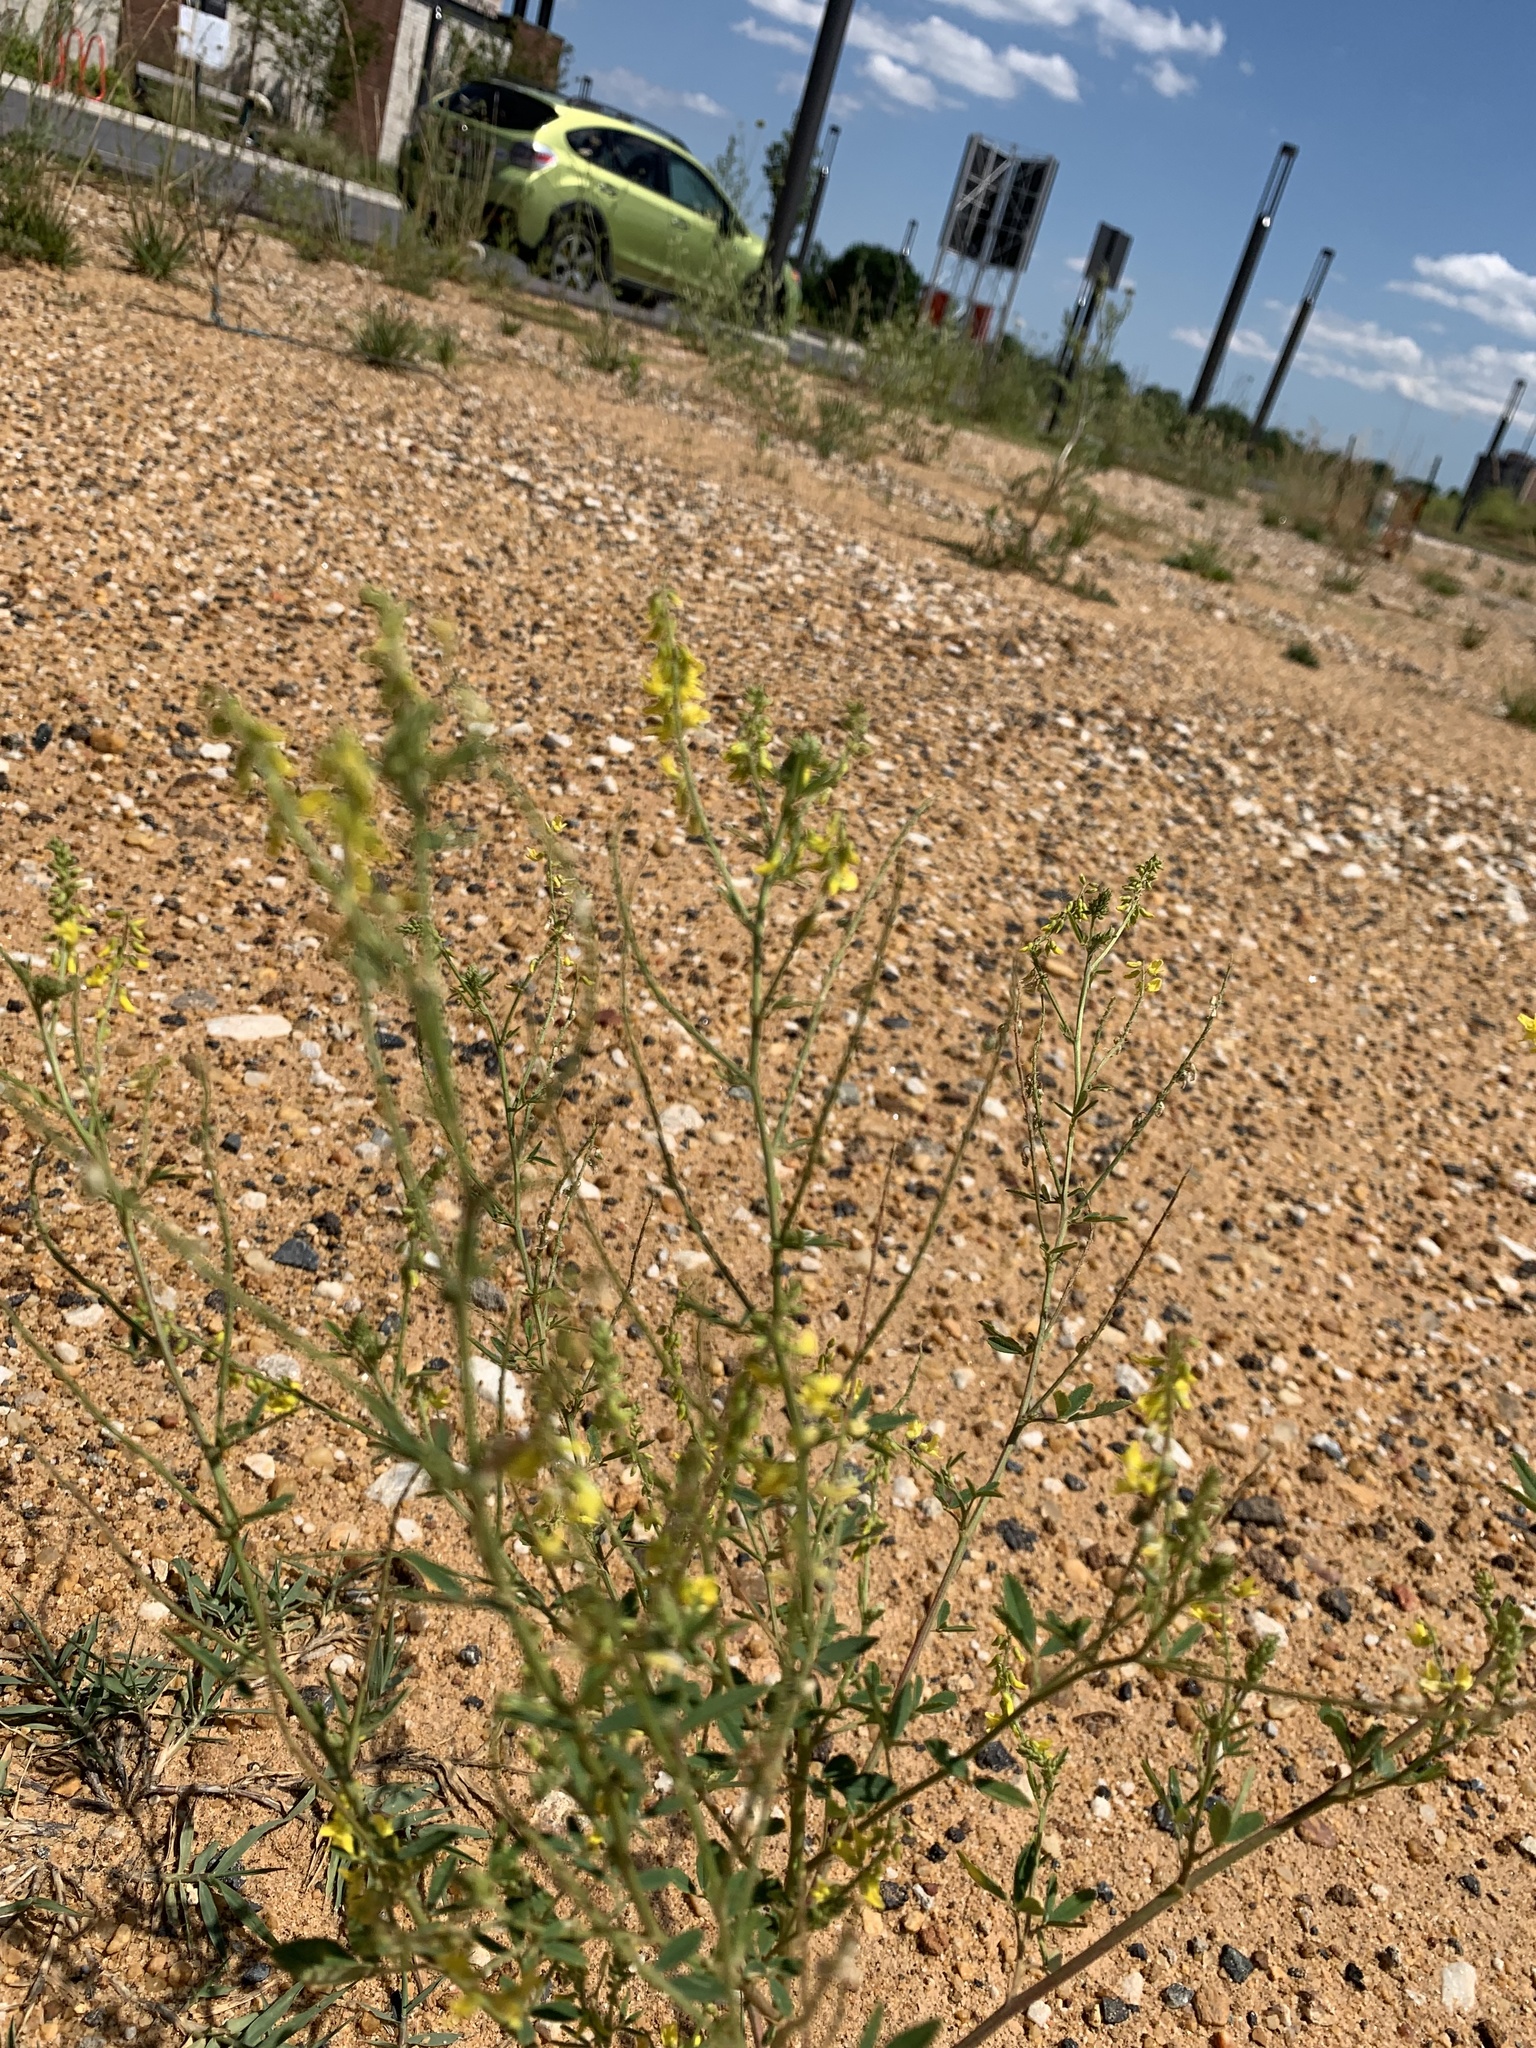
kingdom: Plantae
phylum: Tracheophyta
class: Magnoliopsida
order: Fabales
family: Fabaceae
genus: Melilotus
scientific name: Melilotus officinalis
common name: Sweetclover
